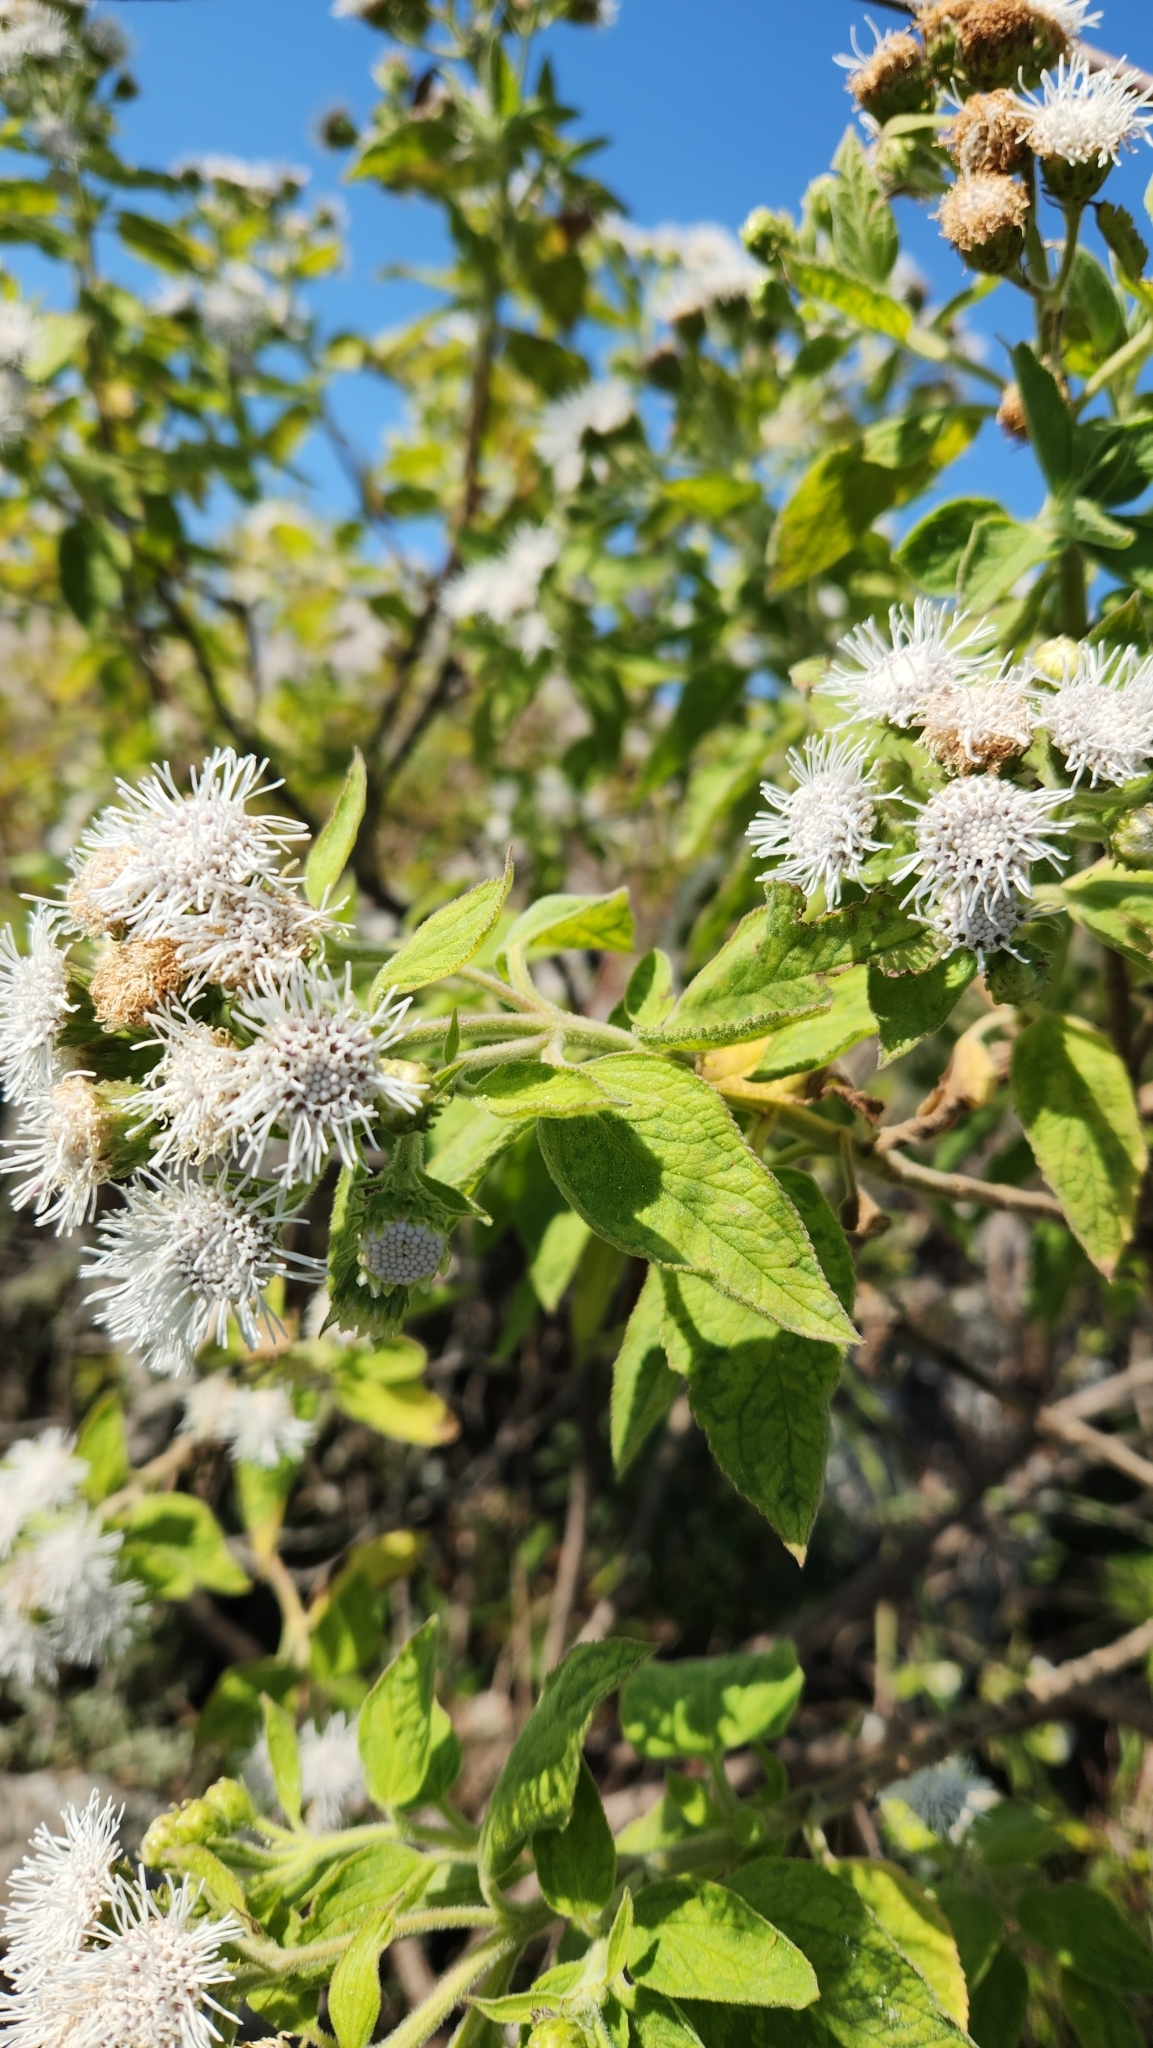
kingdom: Plantae
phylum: Tracheophyta
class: Magnoliopsida
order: Asterales
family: Asteraceae
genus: Radlkoferotoma
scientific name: Radlkoferotoma cistifolium
